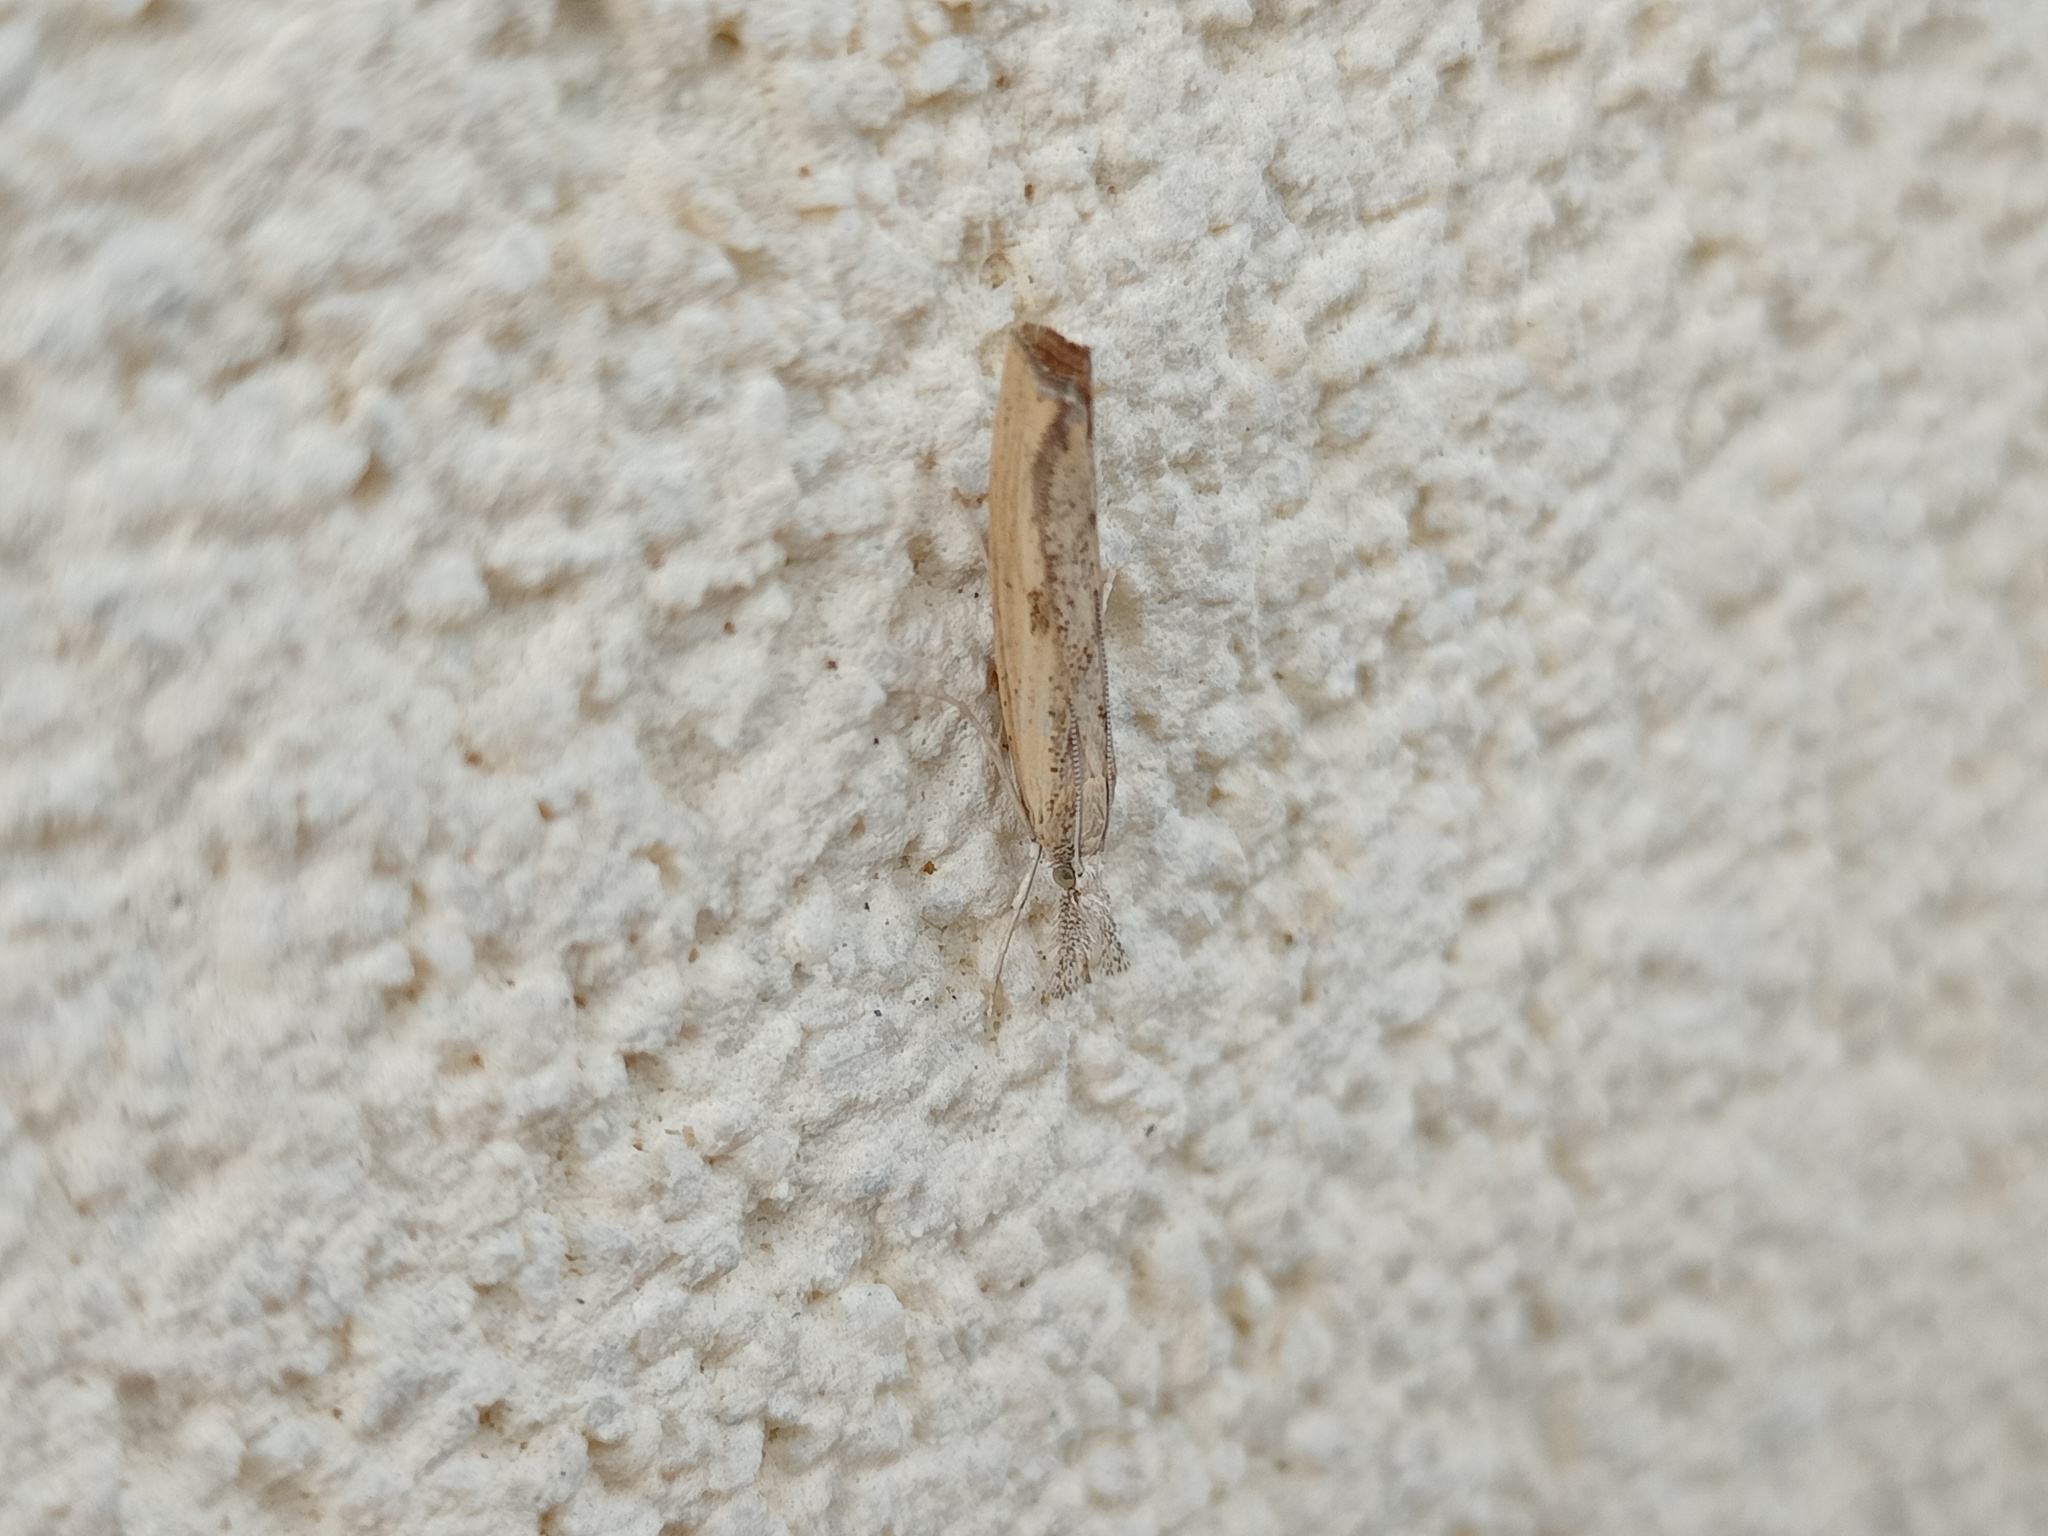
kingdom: Animalia
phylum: Arthropoda
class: Insecta
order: Lepidoptera
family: Crambidae
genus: Agriphila
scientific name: Agriphila inquinatella
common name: Barred grass-veneer
